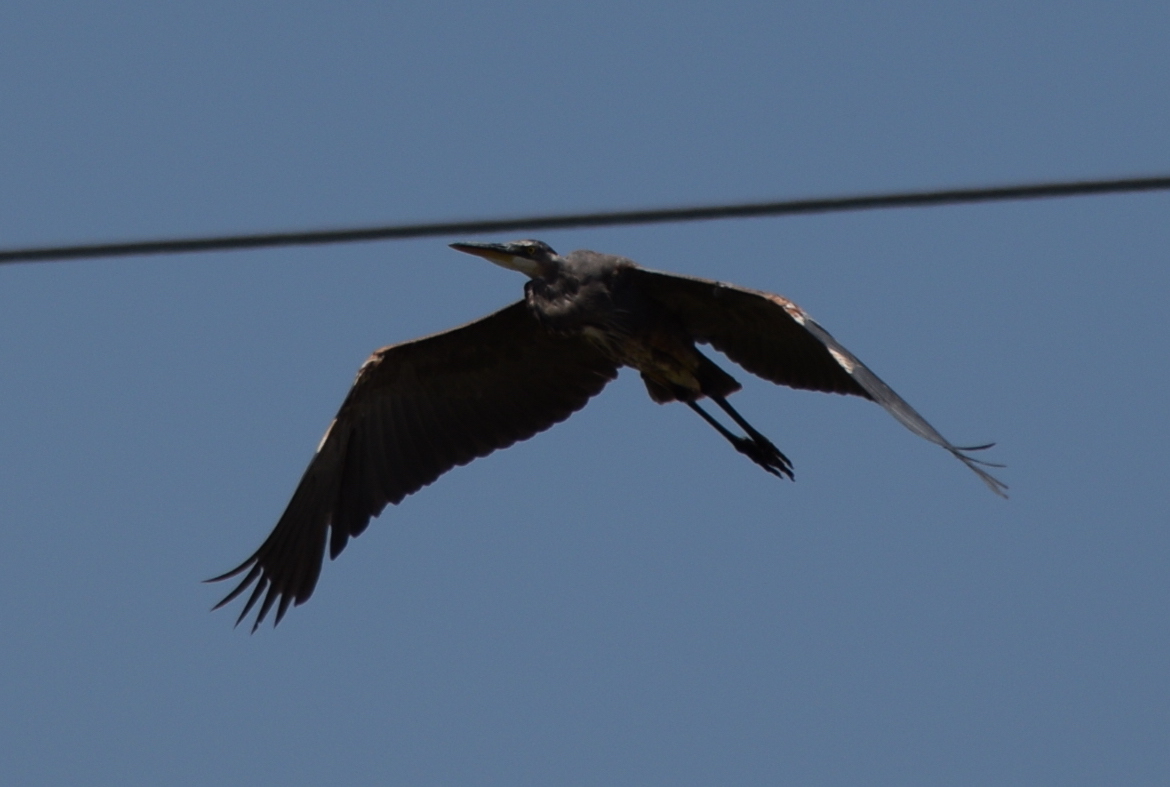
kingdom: Animalia
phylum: Chordata
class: Aves
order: Pelecaniformes
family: Ardeidae
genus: Ardea
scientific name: Ardea herodias
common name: Great blue heron
